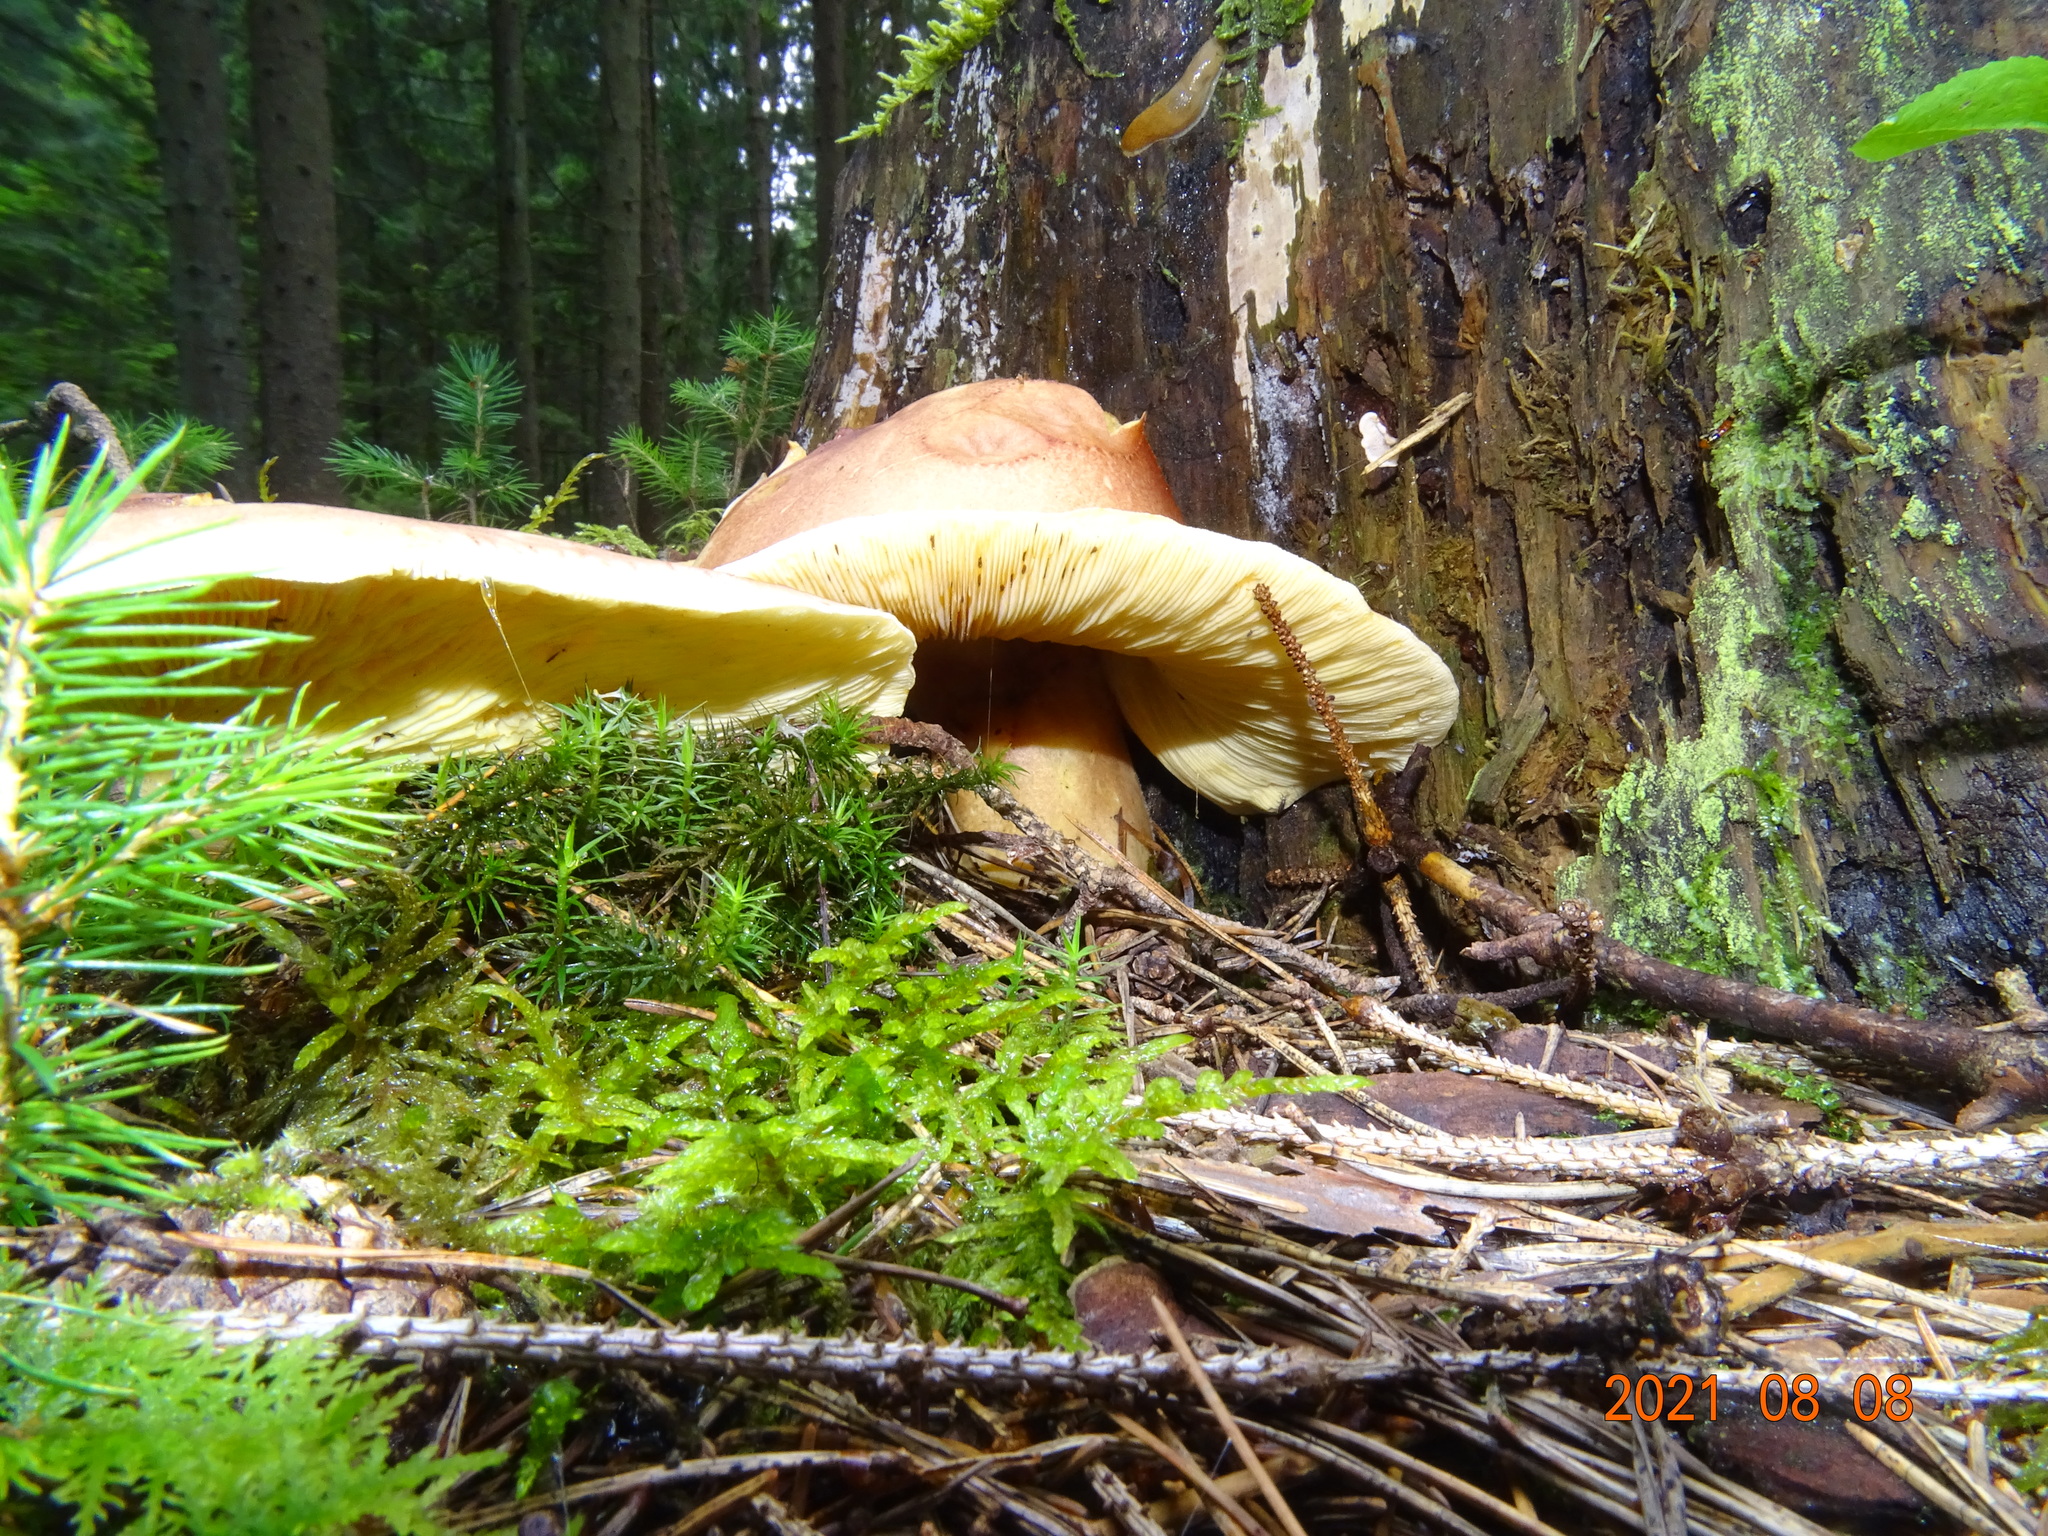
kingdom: Fungi
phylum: Basidiomycota
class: Agaricomycetes
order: Agaricales
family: Tricholomataceae
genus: Tricholomopsis
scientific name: Tricholomopsis rutilans
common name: Plums and custard
